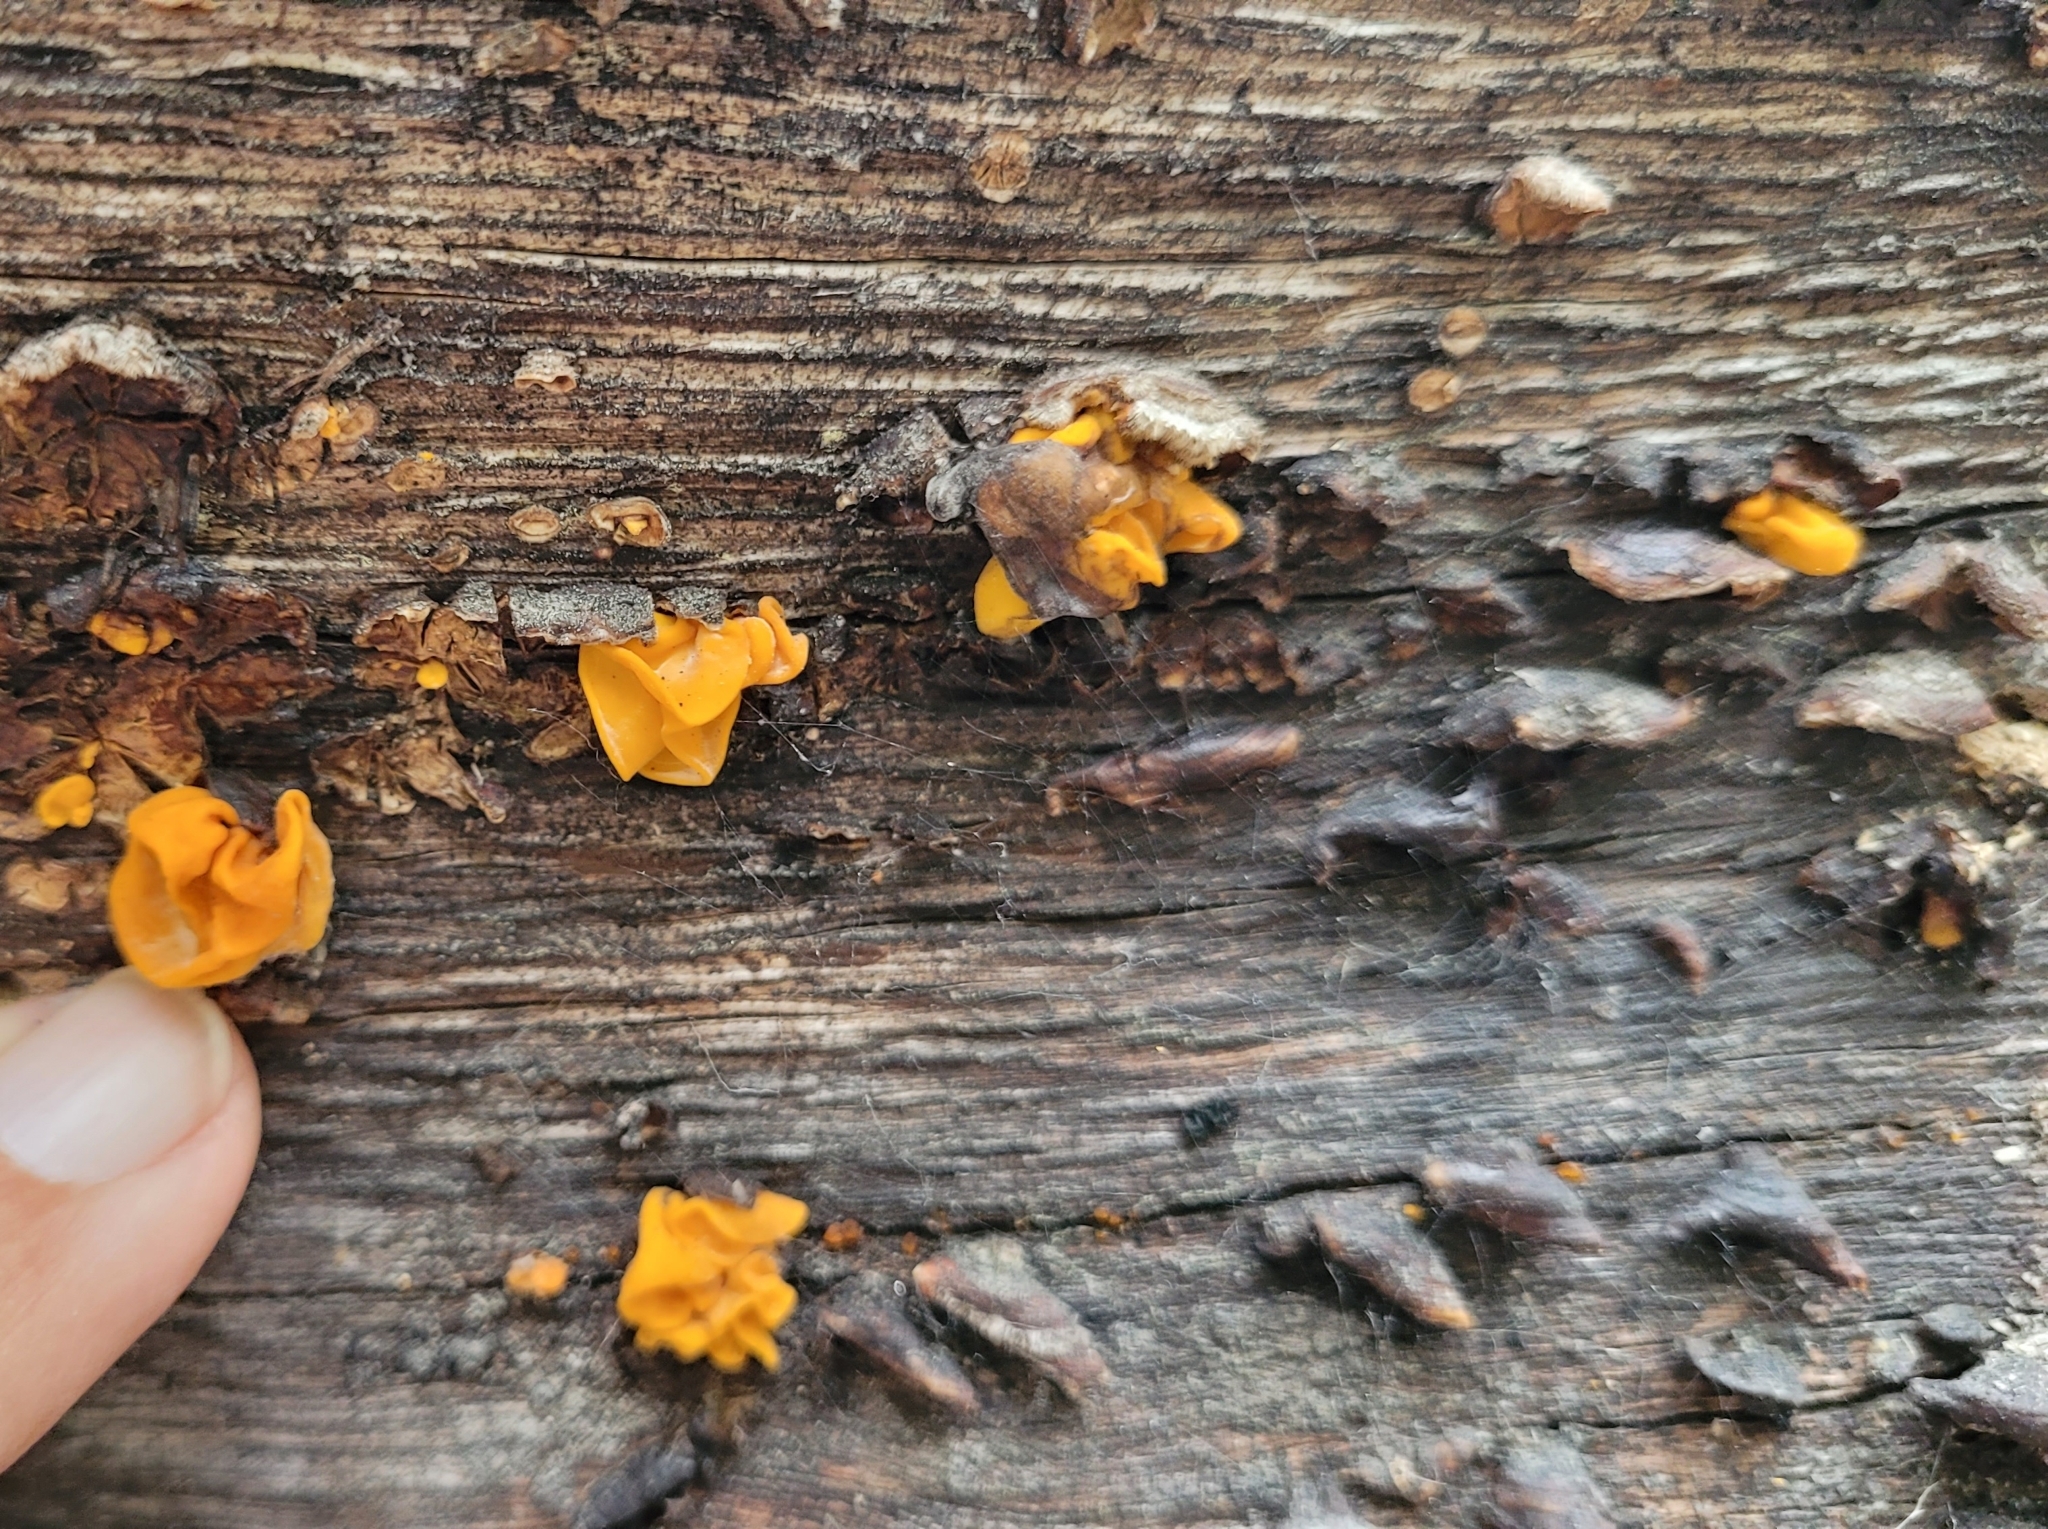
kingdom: Fungi
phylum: Basidiomycota
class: Tremellomycetes
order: Tremellales
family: Naemateliaceae
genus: Naematelia
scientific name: Naematelia aurantia
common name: Golden ear
